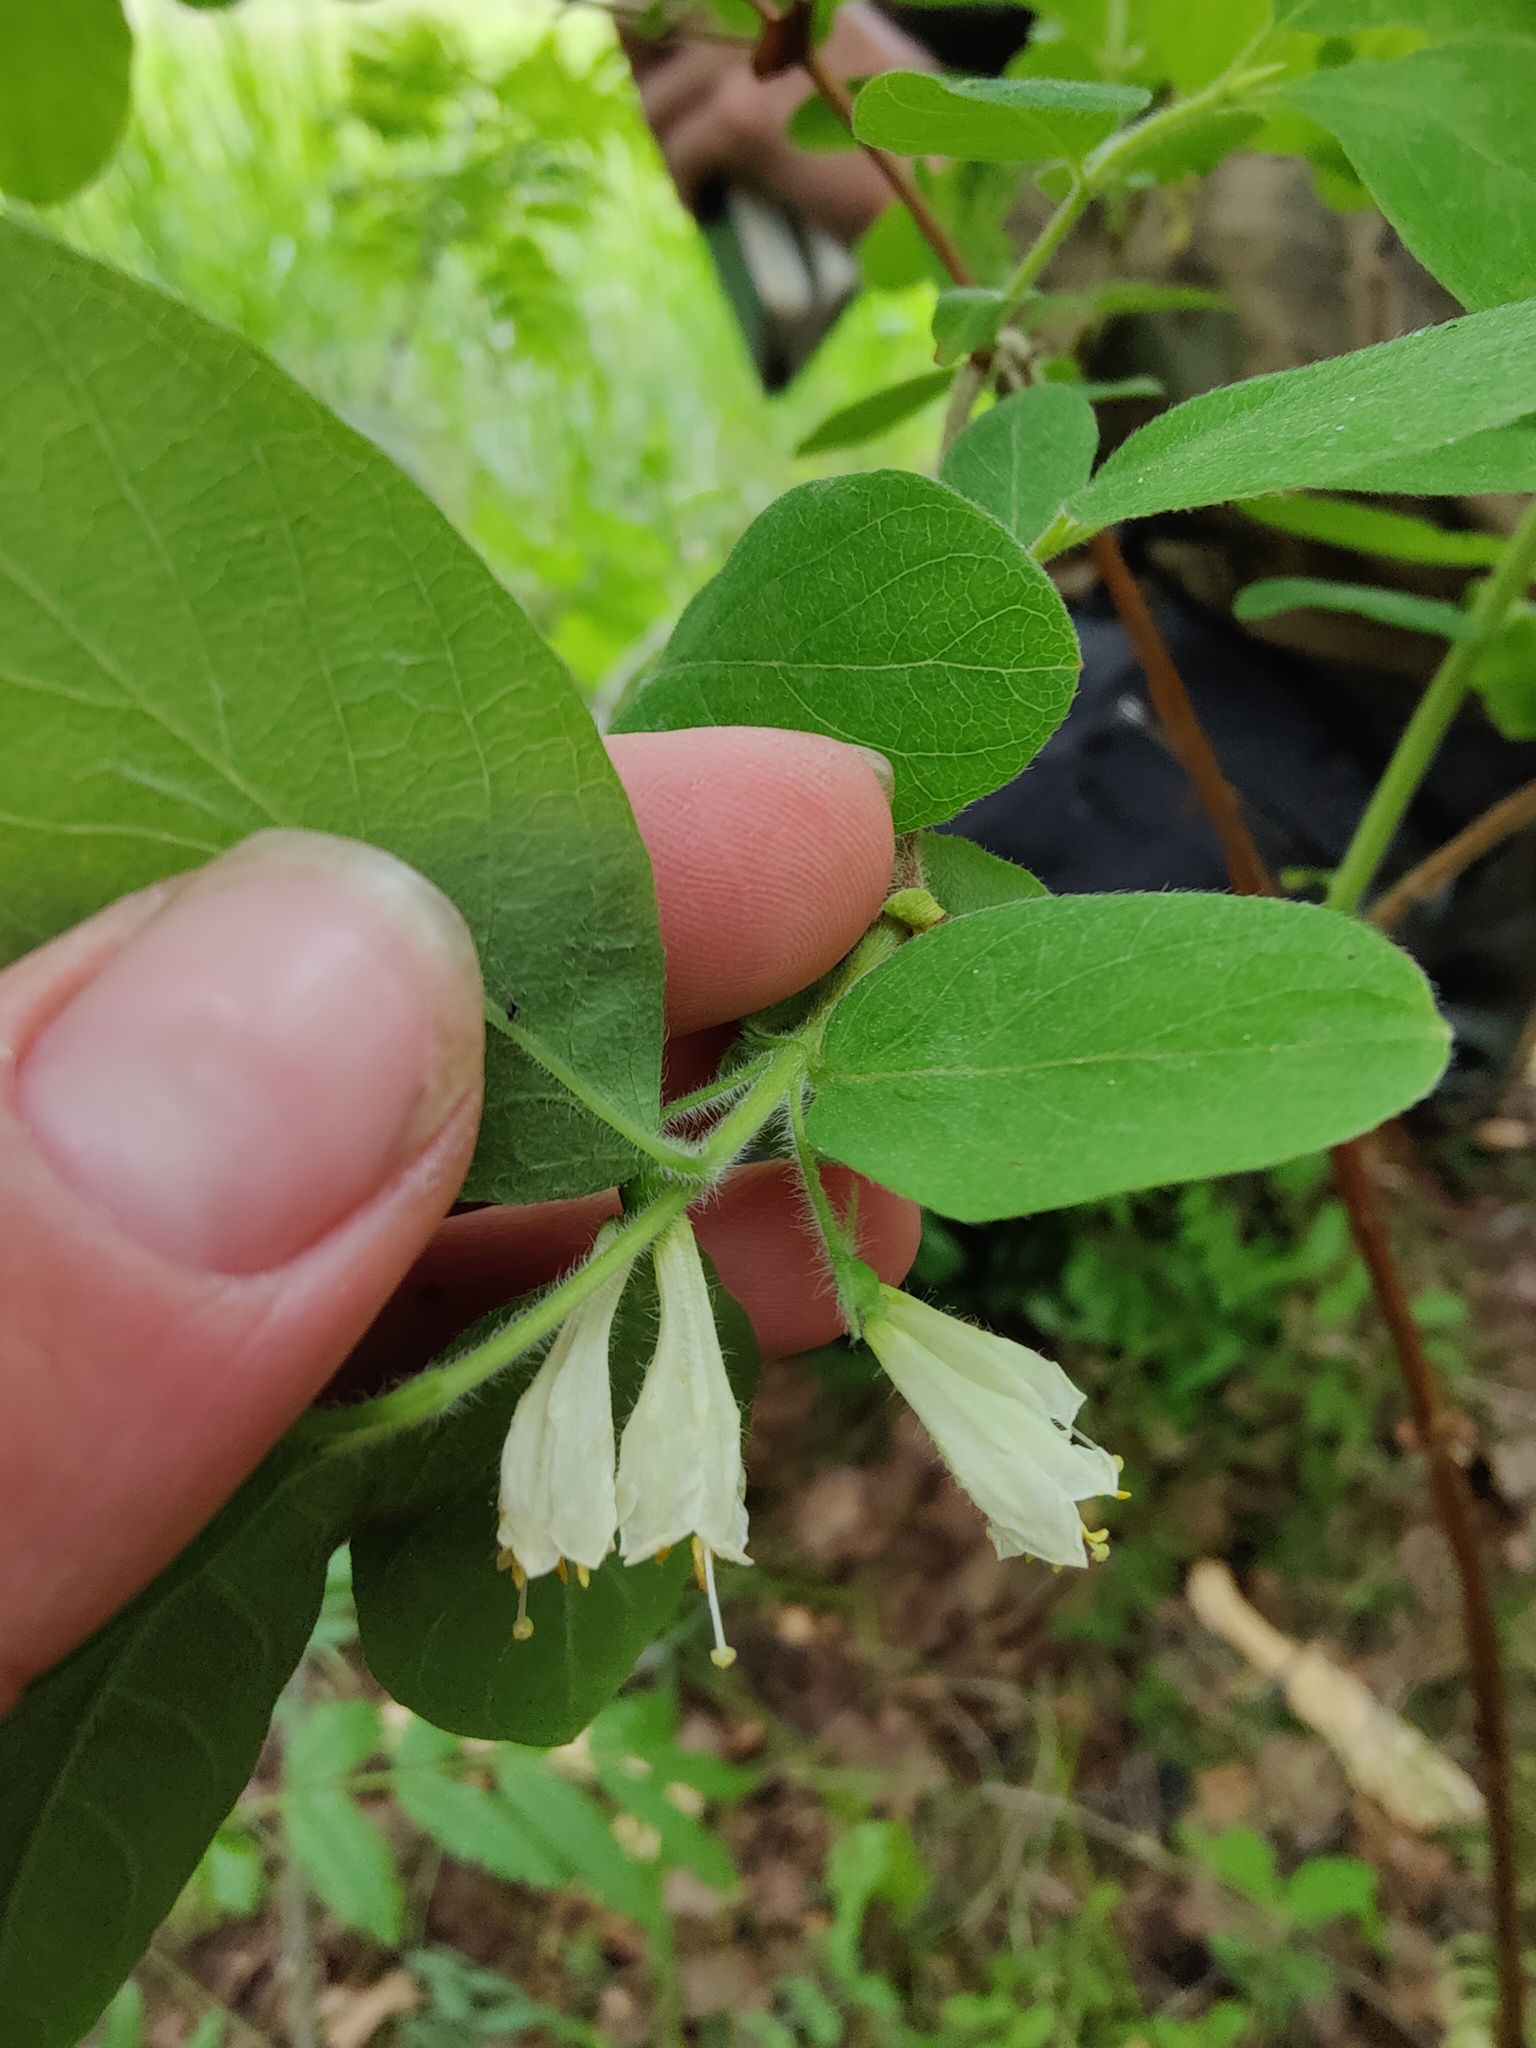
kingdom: Plantae
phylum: Tracheophyta
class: Magnoliopsida
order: Ericales
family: Ericaceae
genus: Vaccinium
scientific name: Vaccinium uliginosum
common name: Bog bilberry
